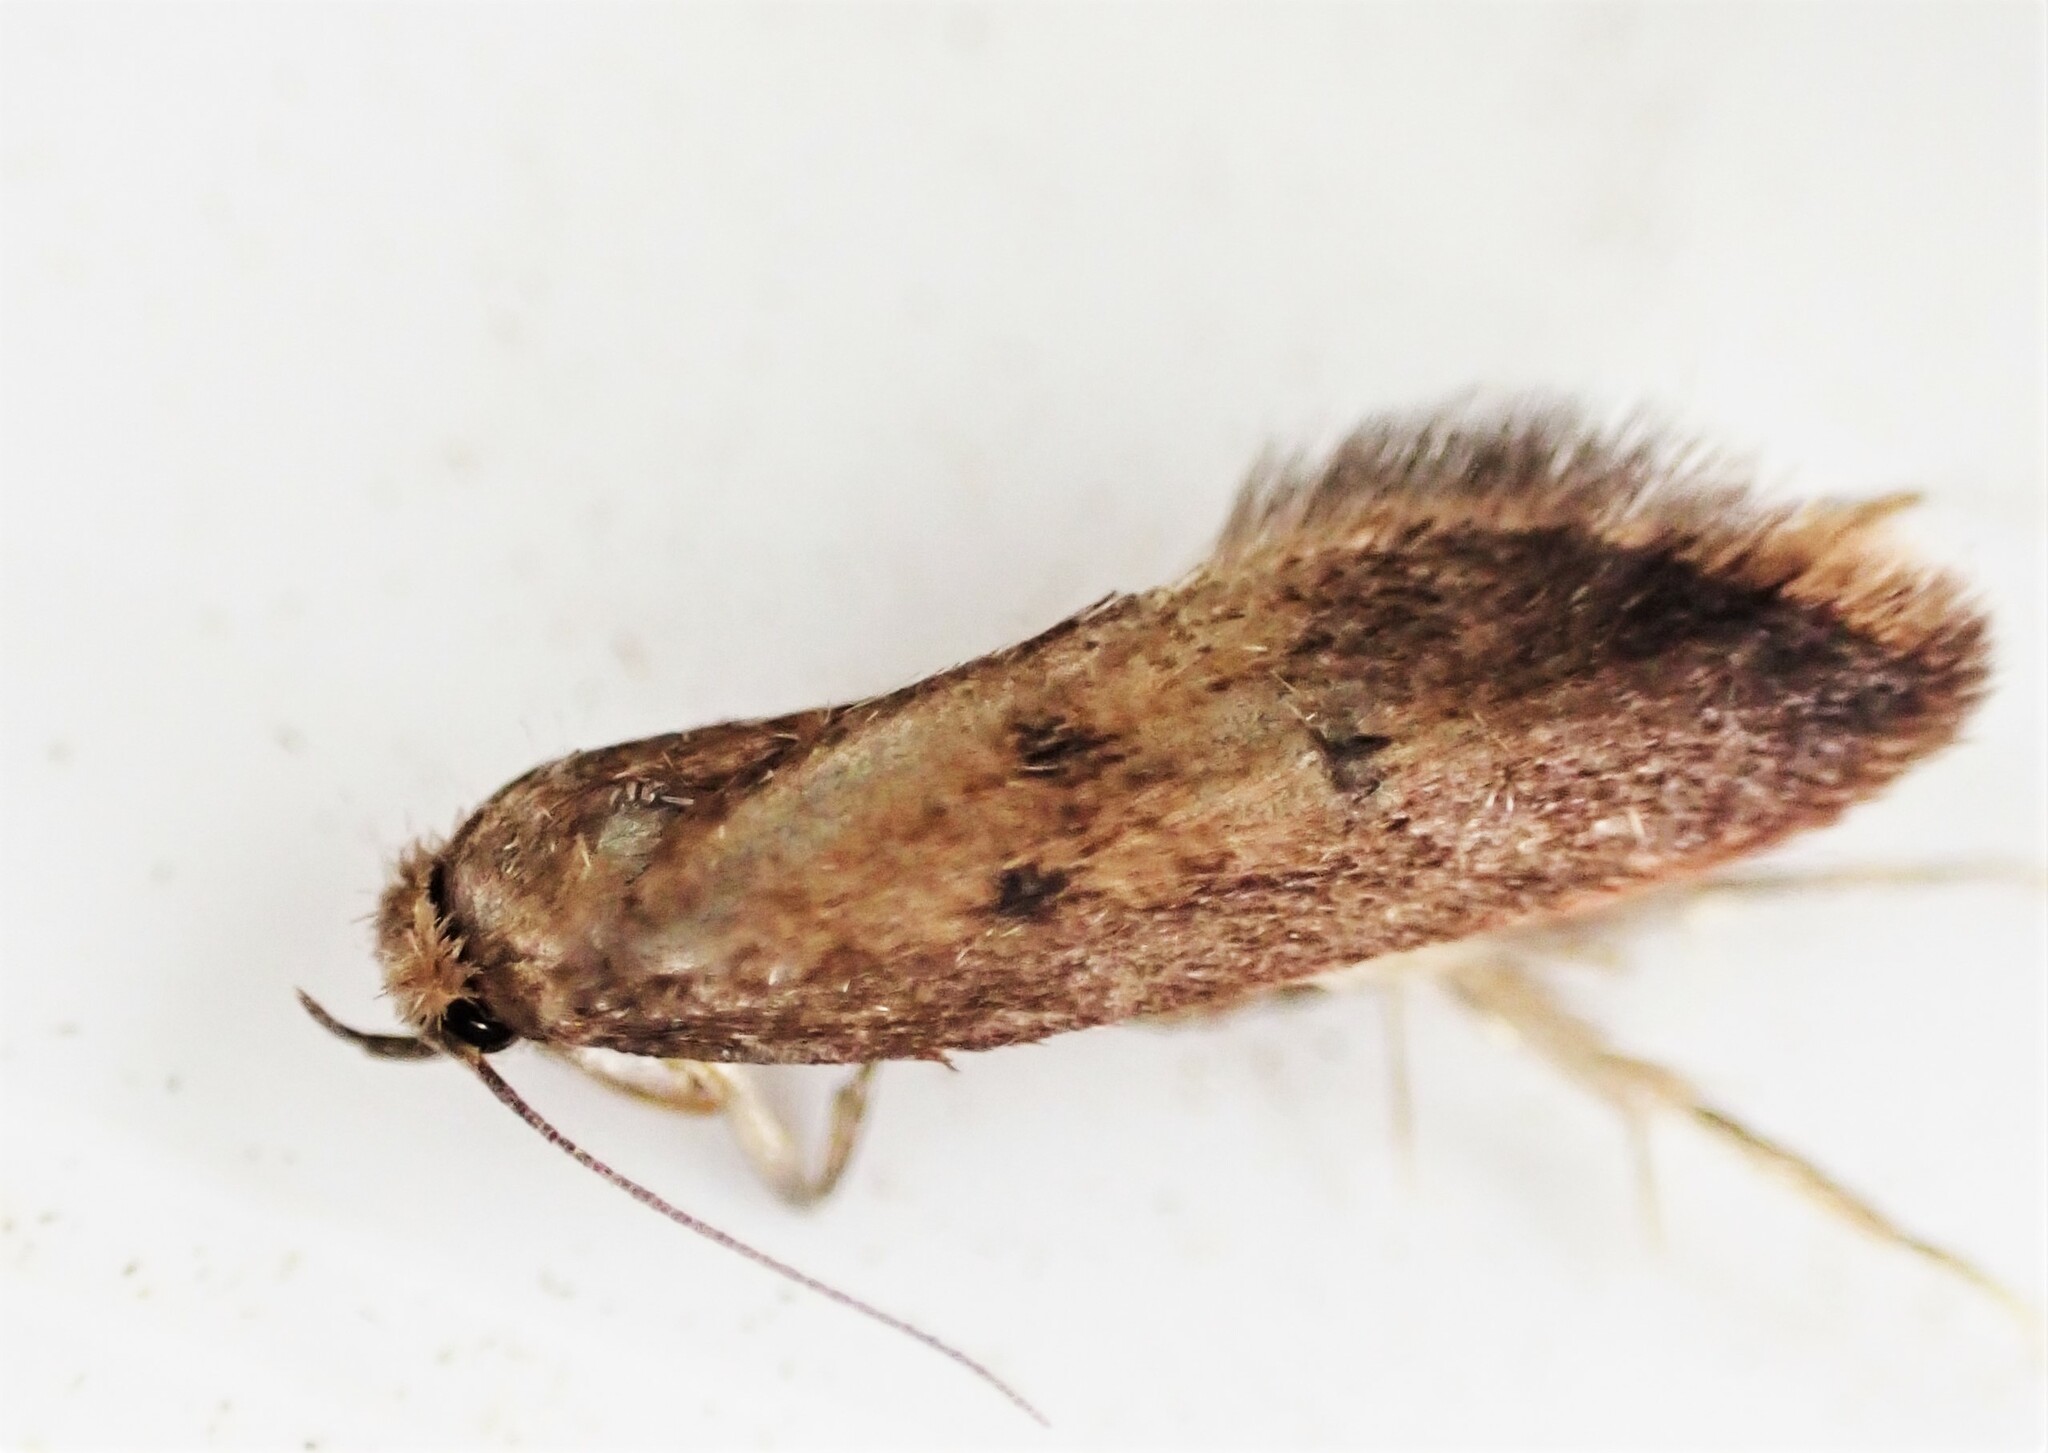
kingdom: Animalia
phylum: Arthropoda
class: Insecta
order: Lepidoptera
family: Oecophoridae
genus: Tachystola
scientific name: Tachystola acroxantha
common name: Ruddy streak
